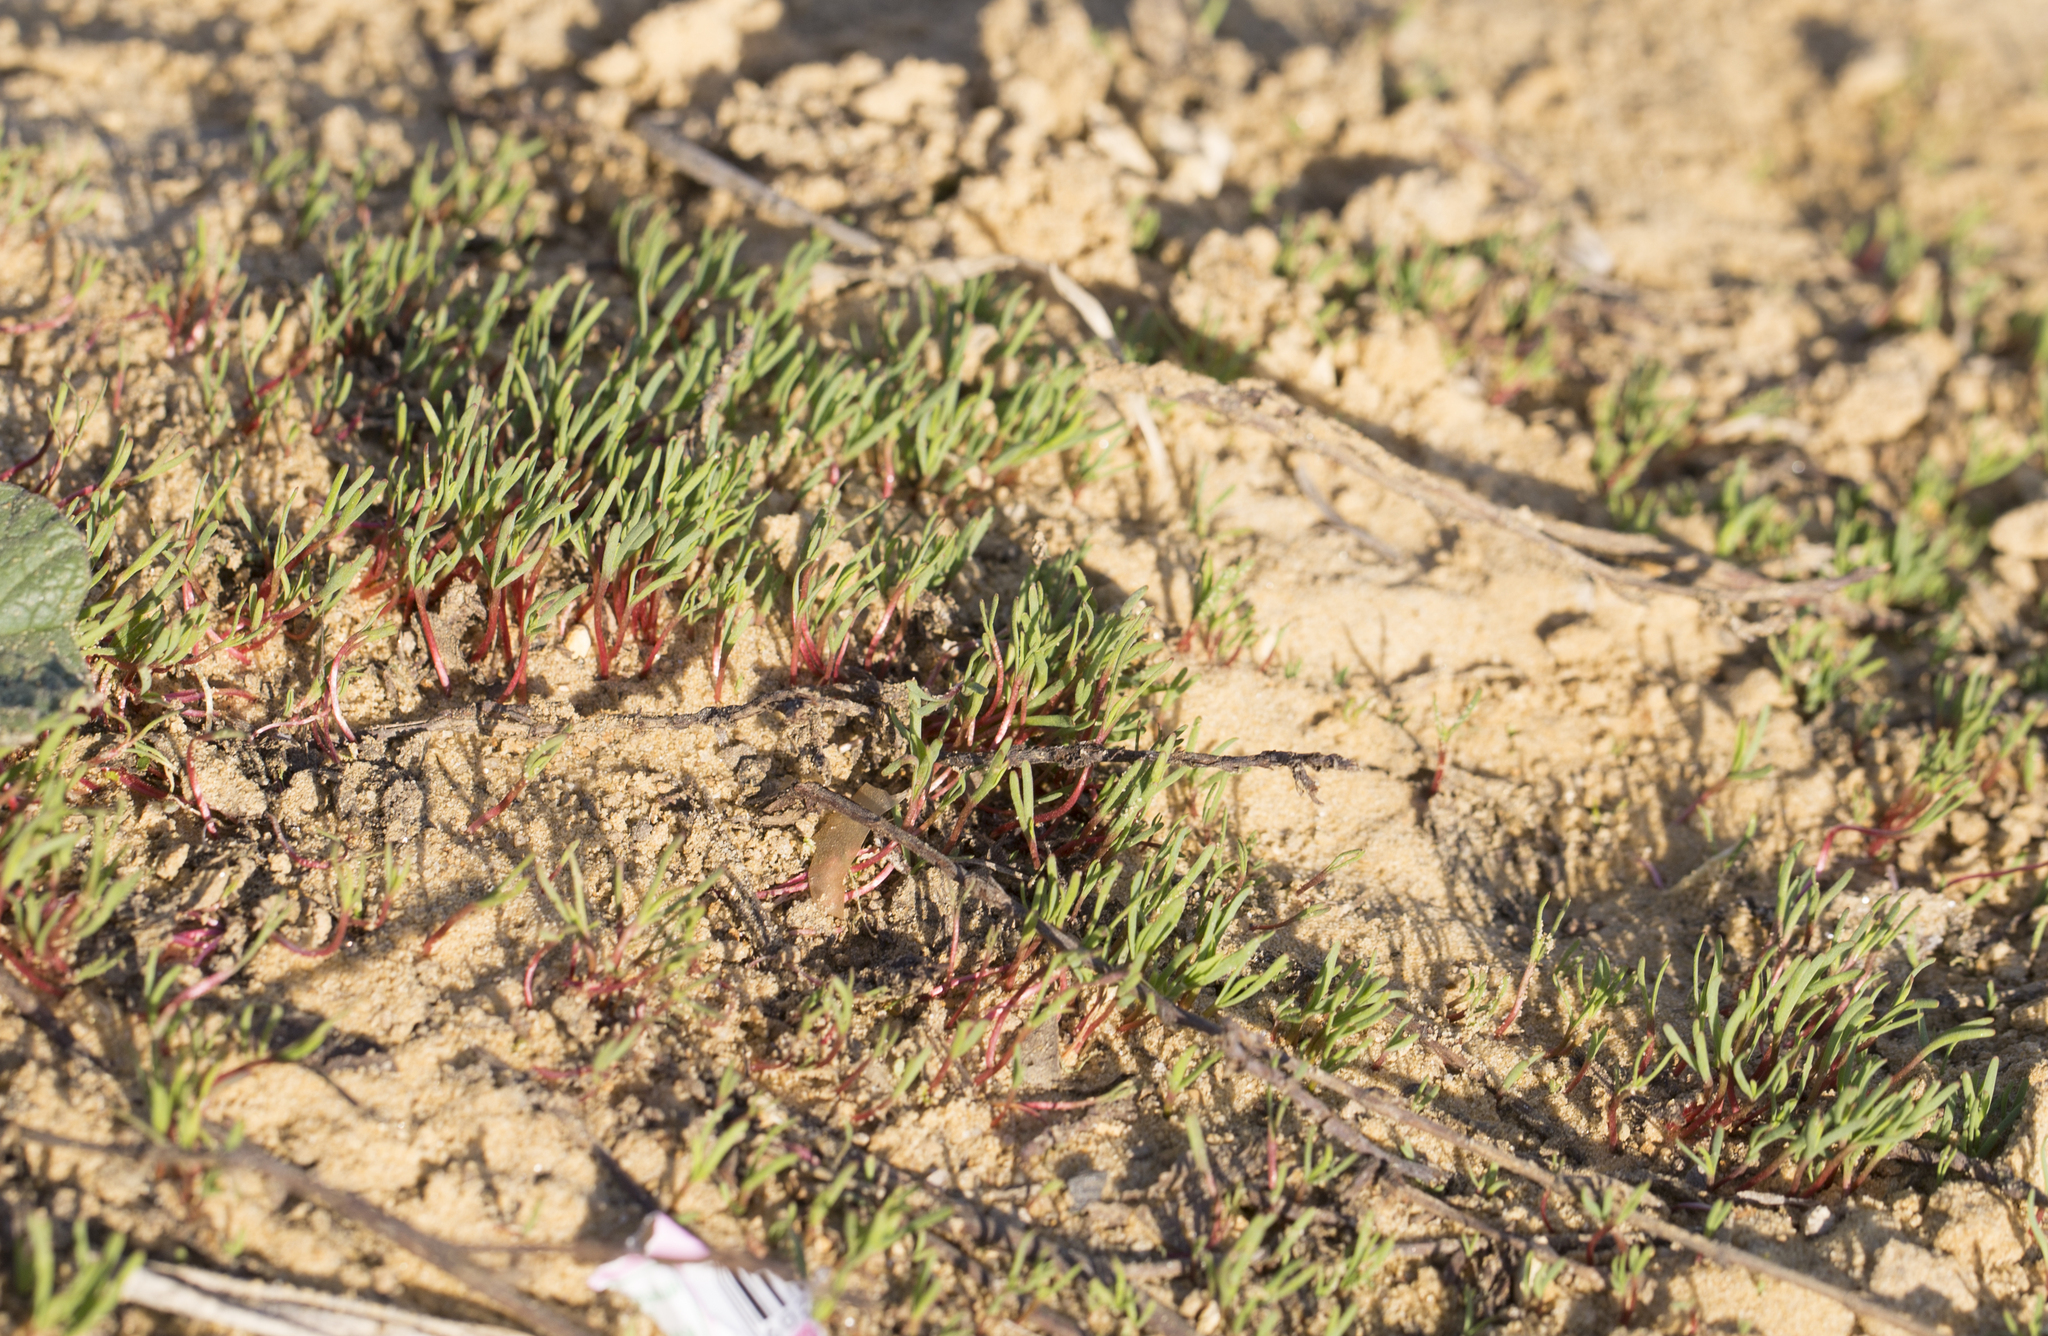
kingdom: Plantae
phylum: Tracheophyta
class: Magnoliopsida
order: Caryophyllales
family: Polygonaceae
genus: Polygonum
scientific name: Polygonum
